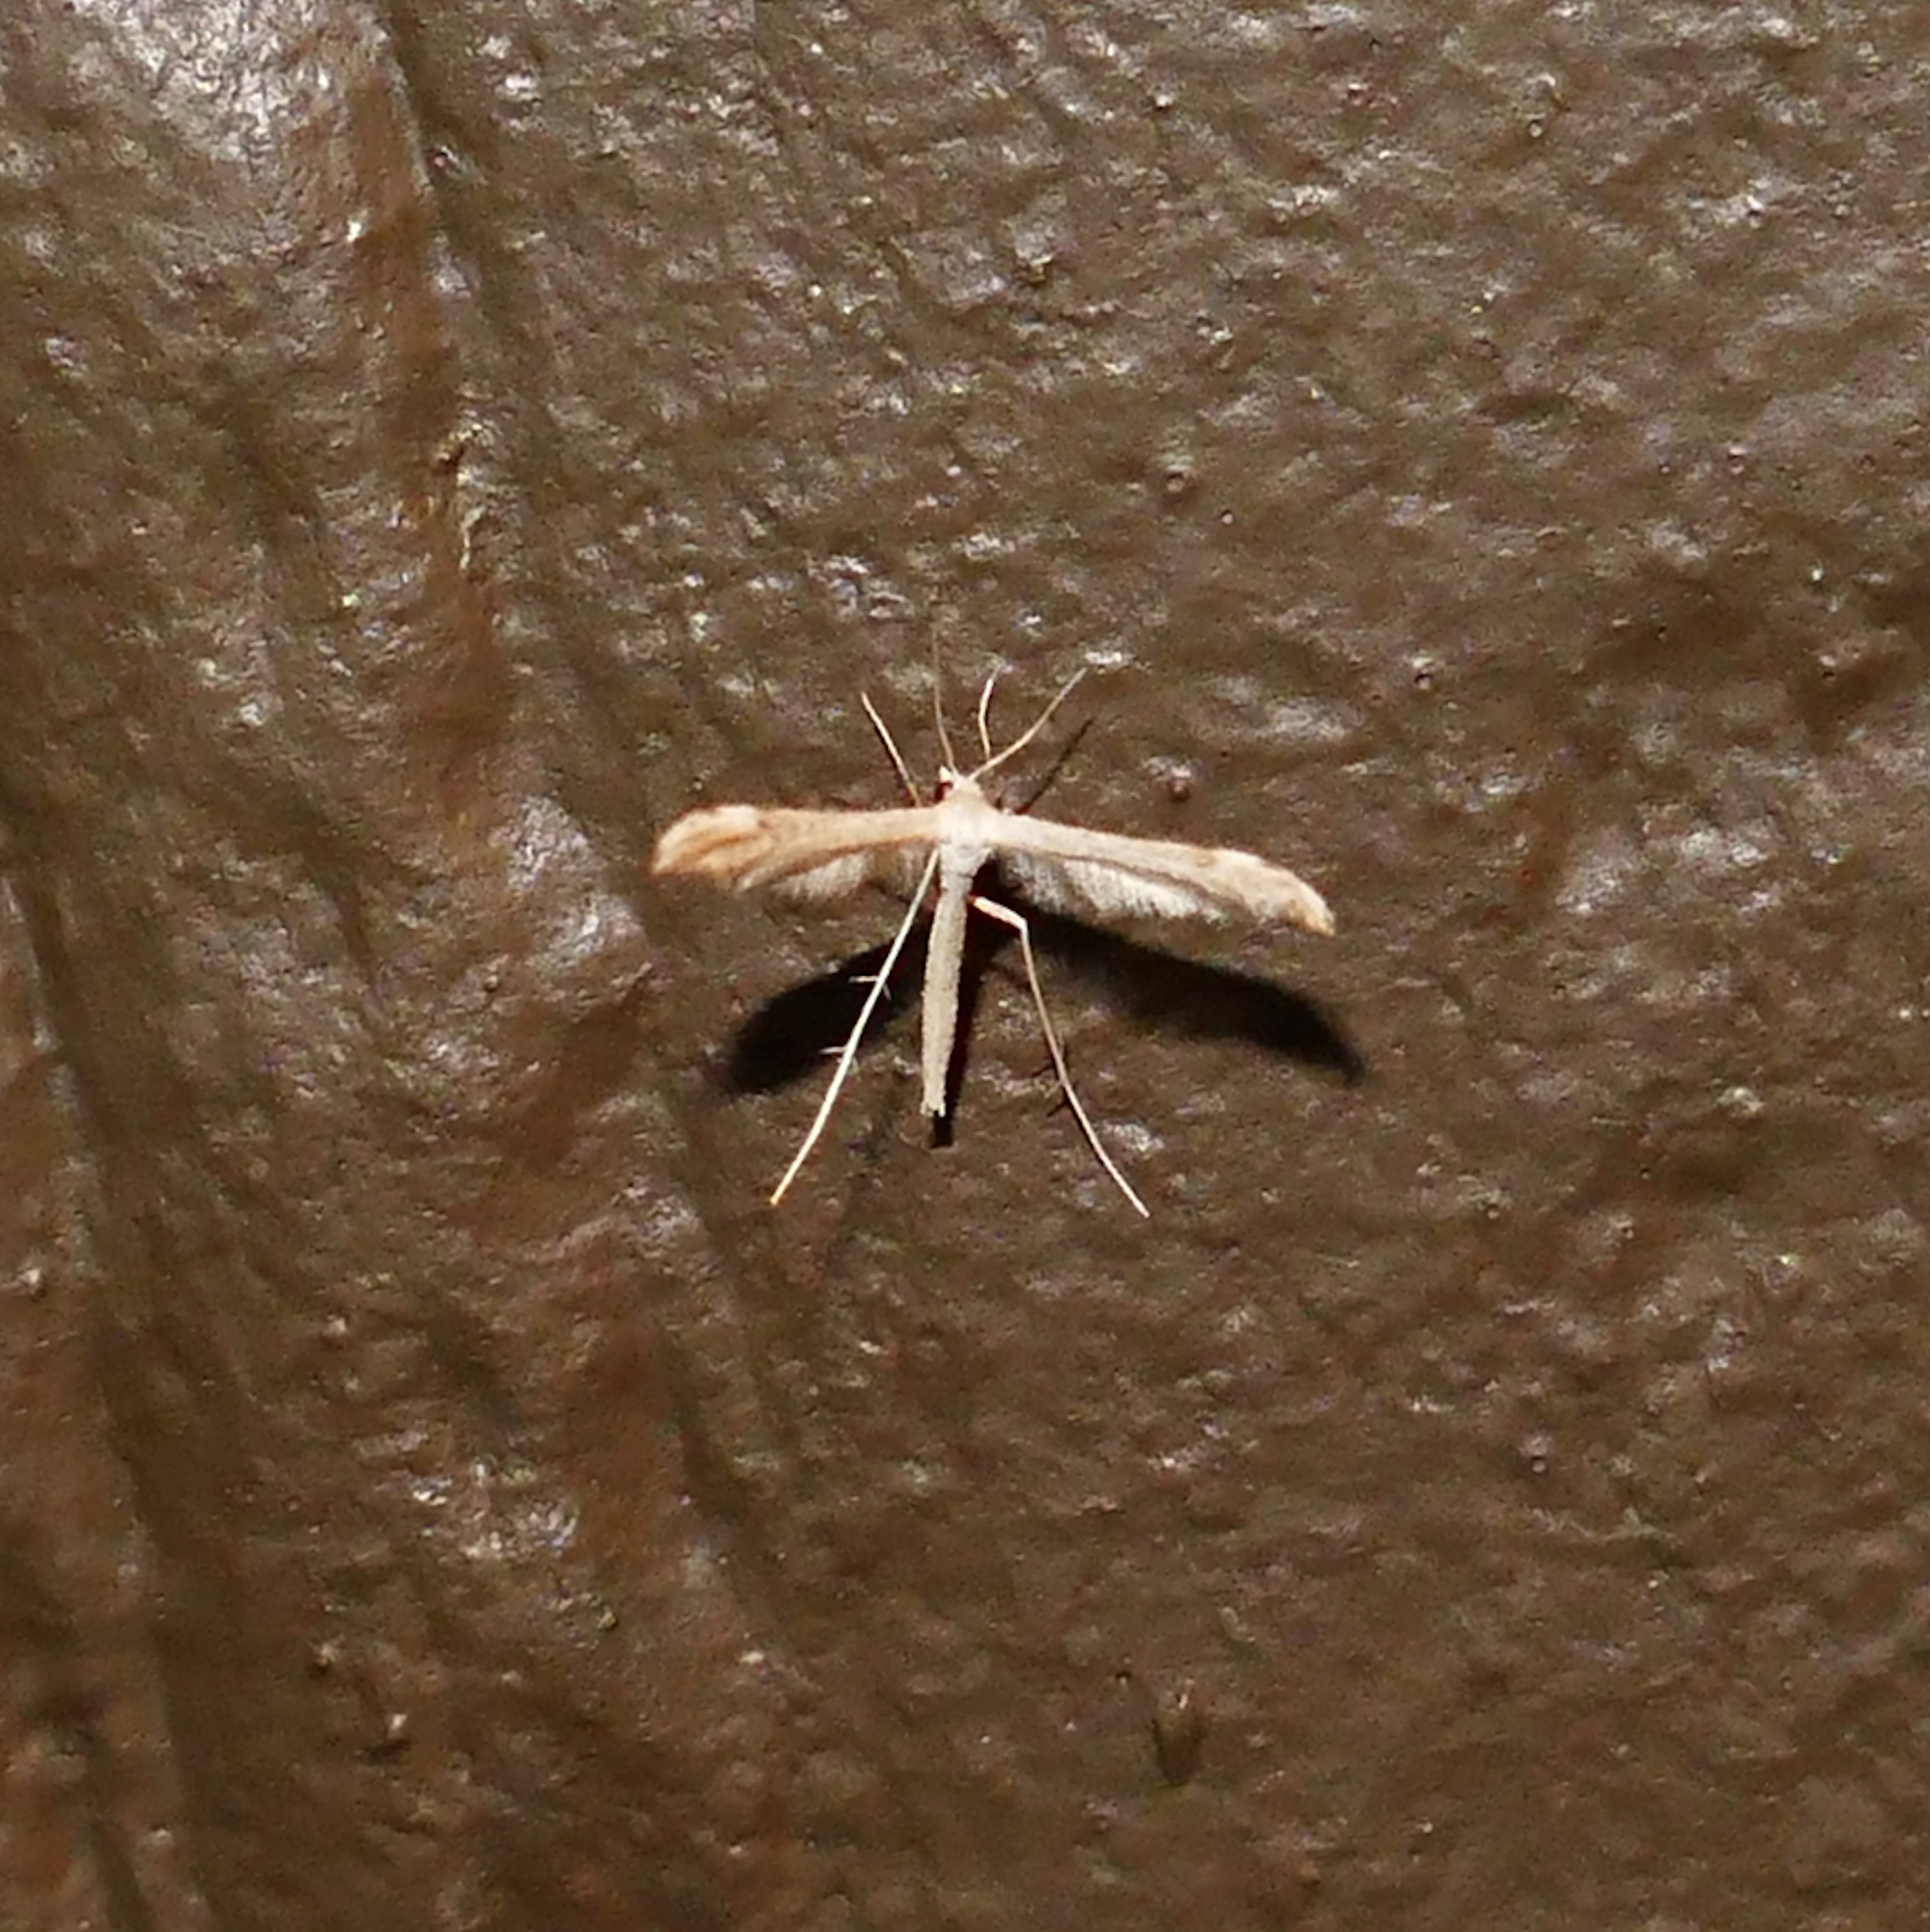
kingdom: Animalia
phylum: Arthropoda
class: Insecta
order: Lepidoptera
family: Pterophoridae
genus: Lioptilodes
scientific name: Lioptilodes albistriolatus
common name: Moth
